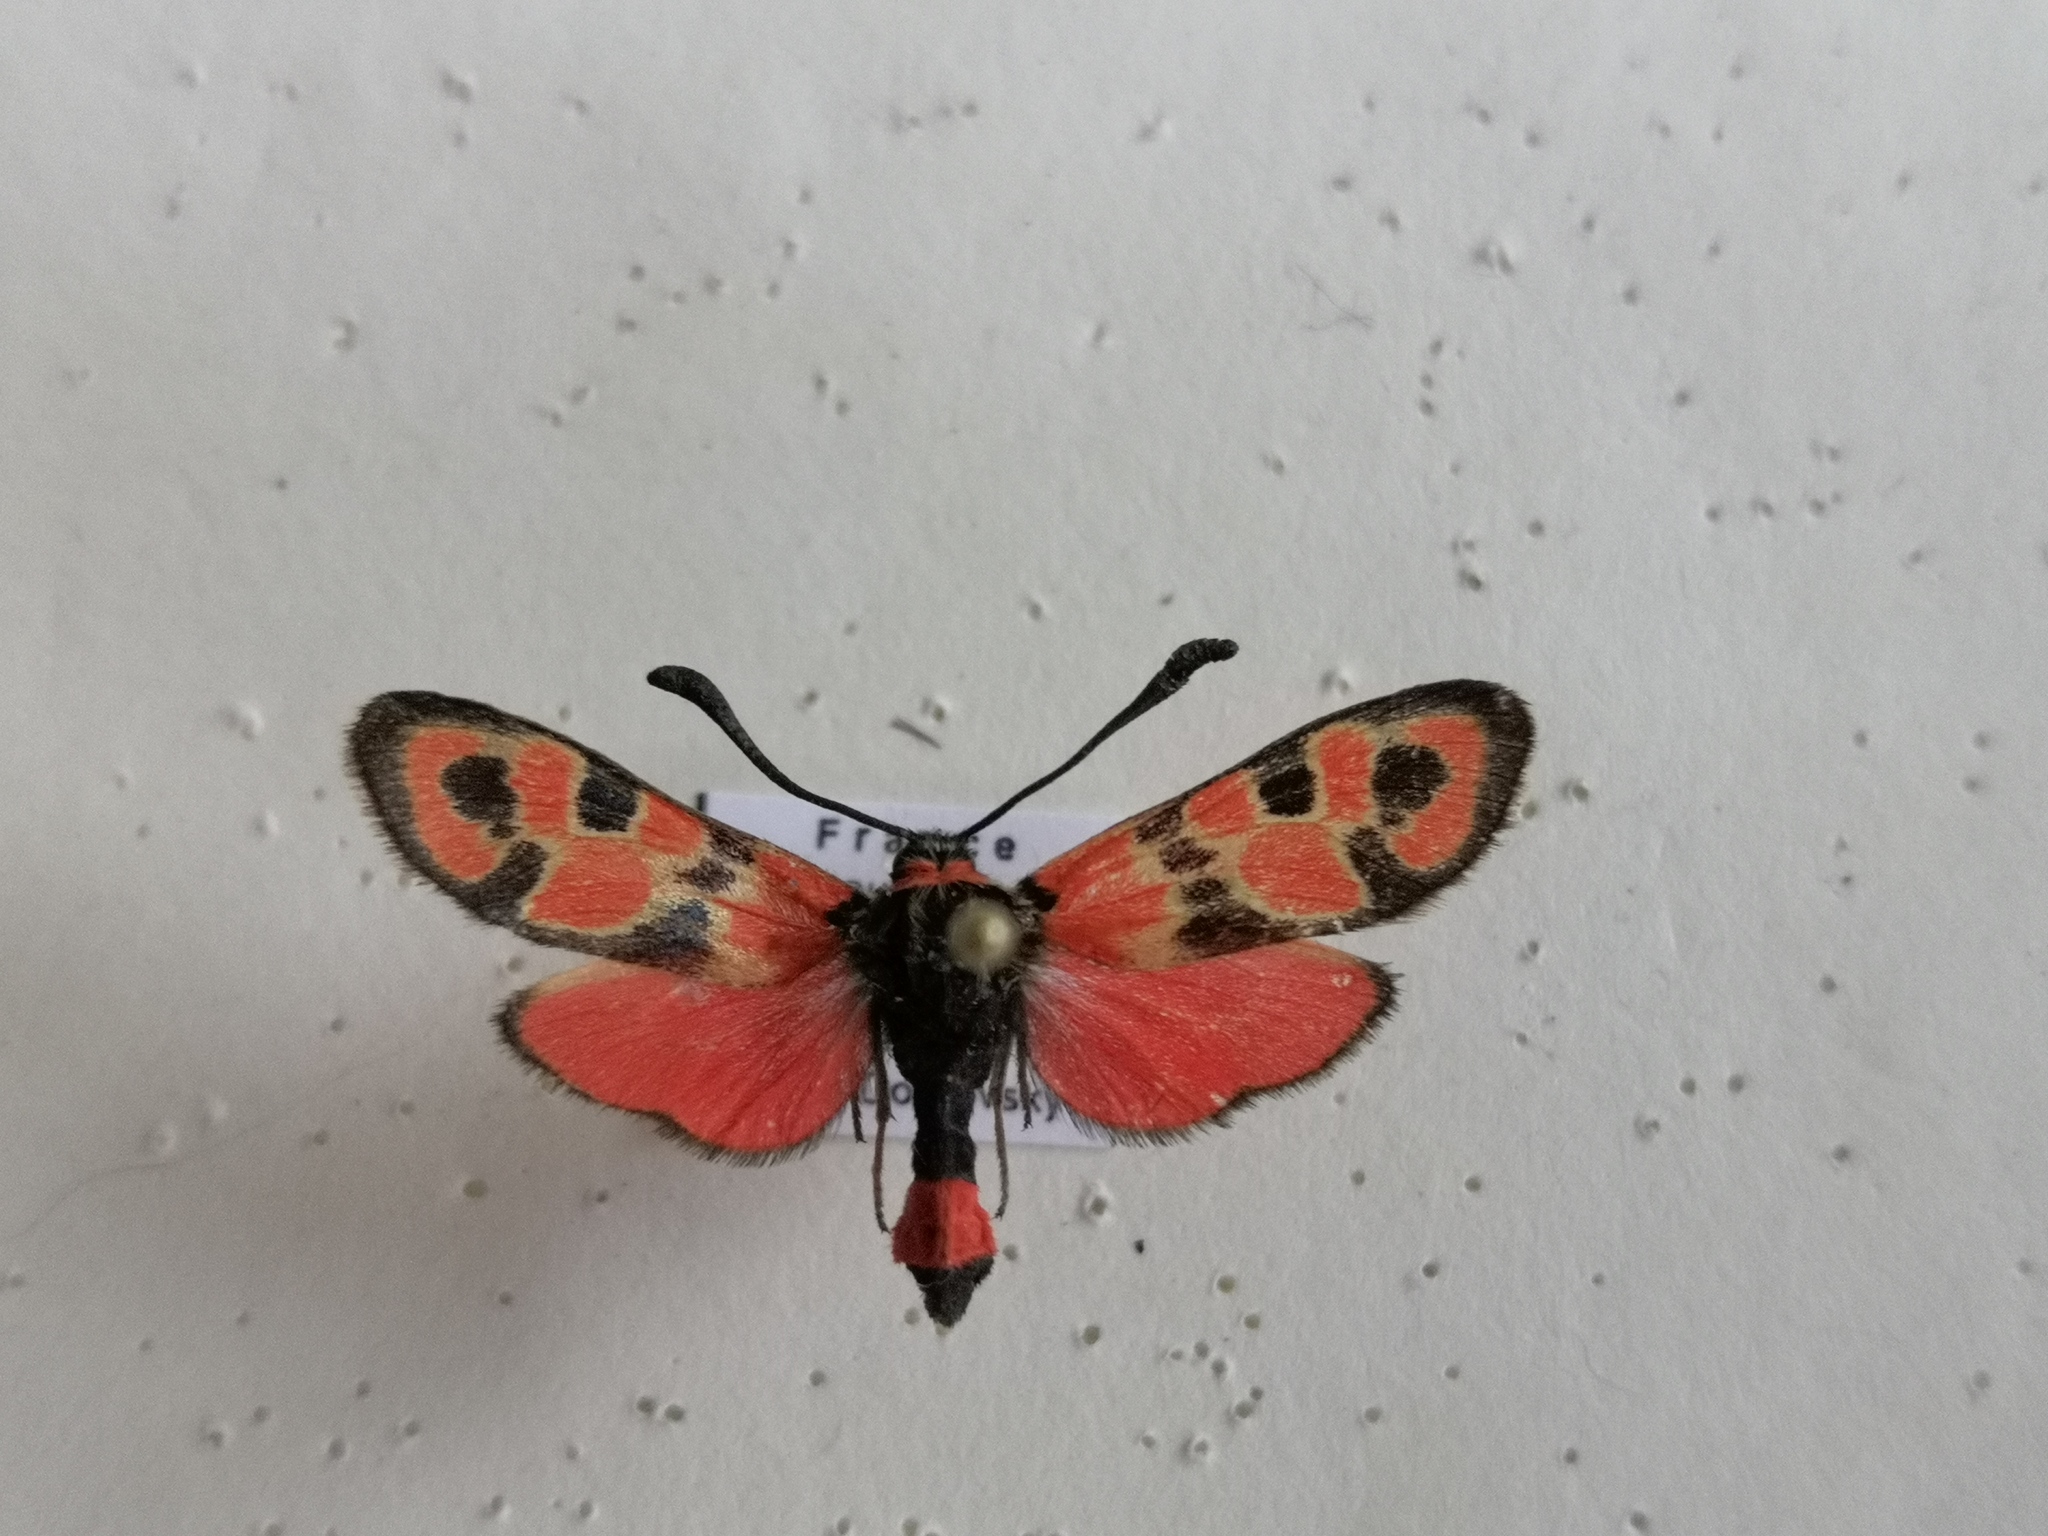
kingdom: Animalia
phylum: Arthropoda
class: Insecta
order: Lepidoptera
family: Zygaenidae
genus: Zygaena
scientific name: Zygaena fausta
